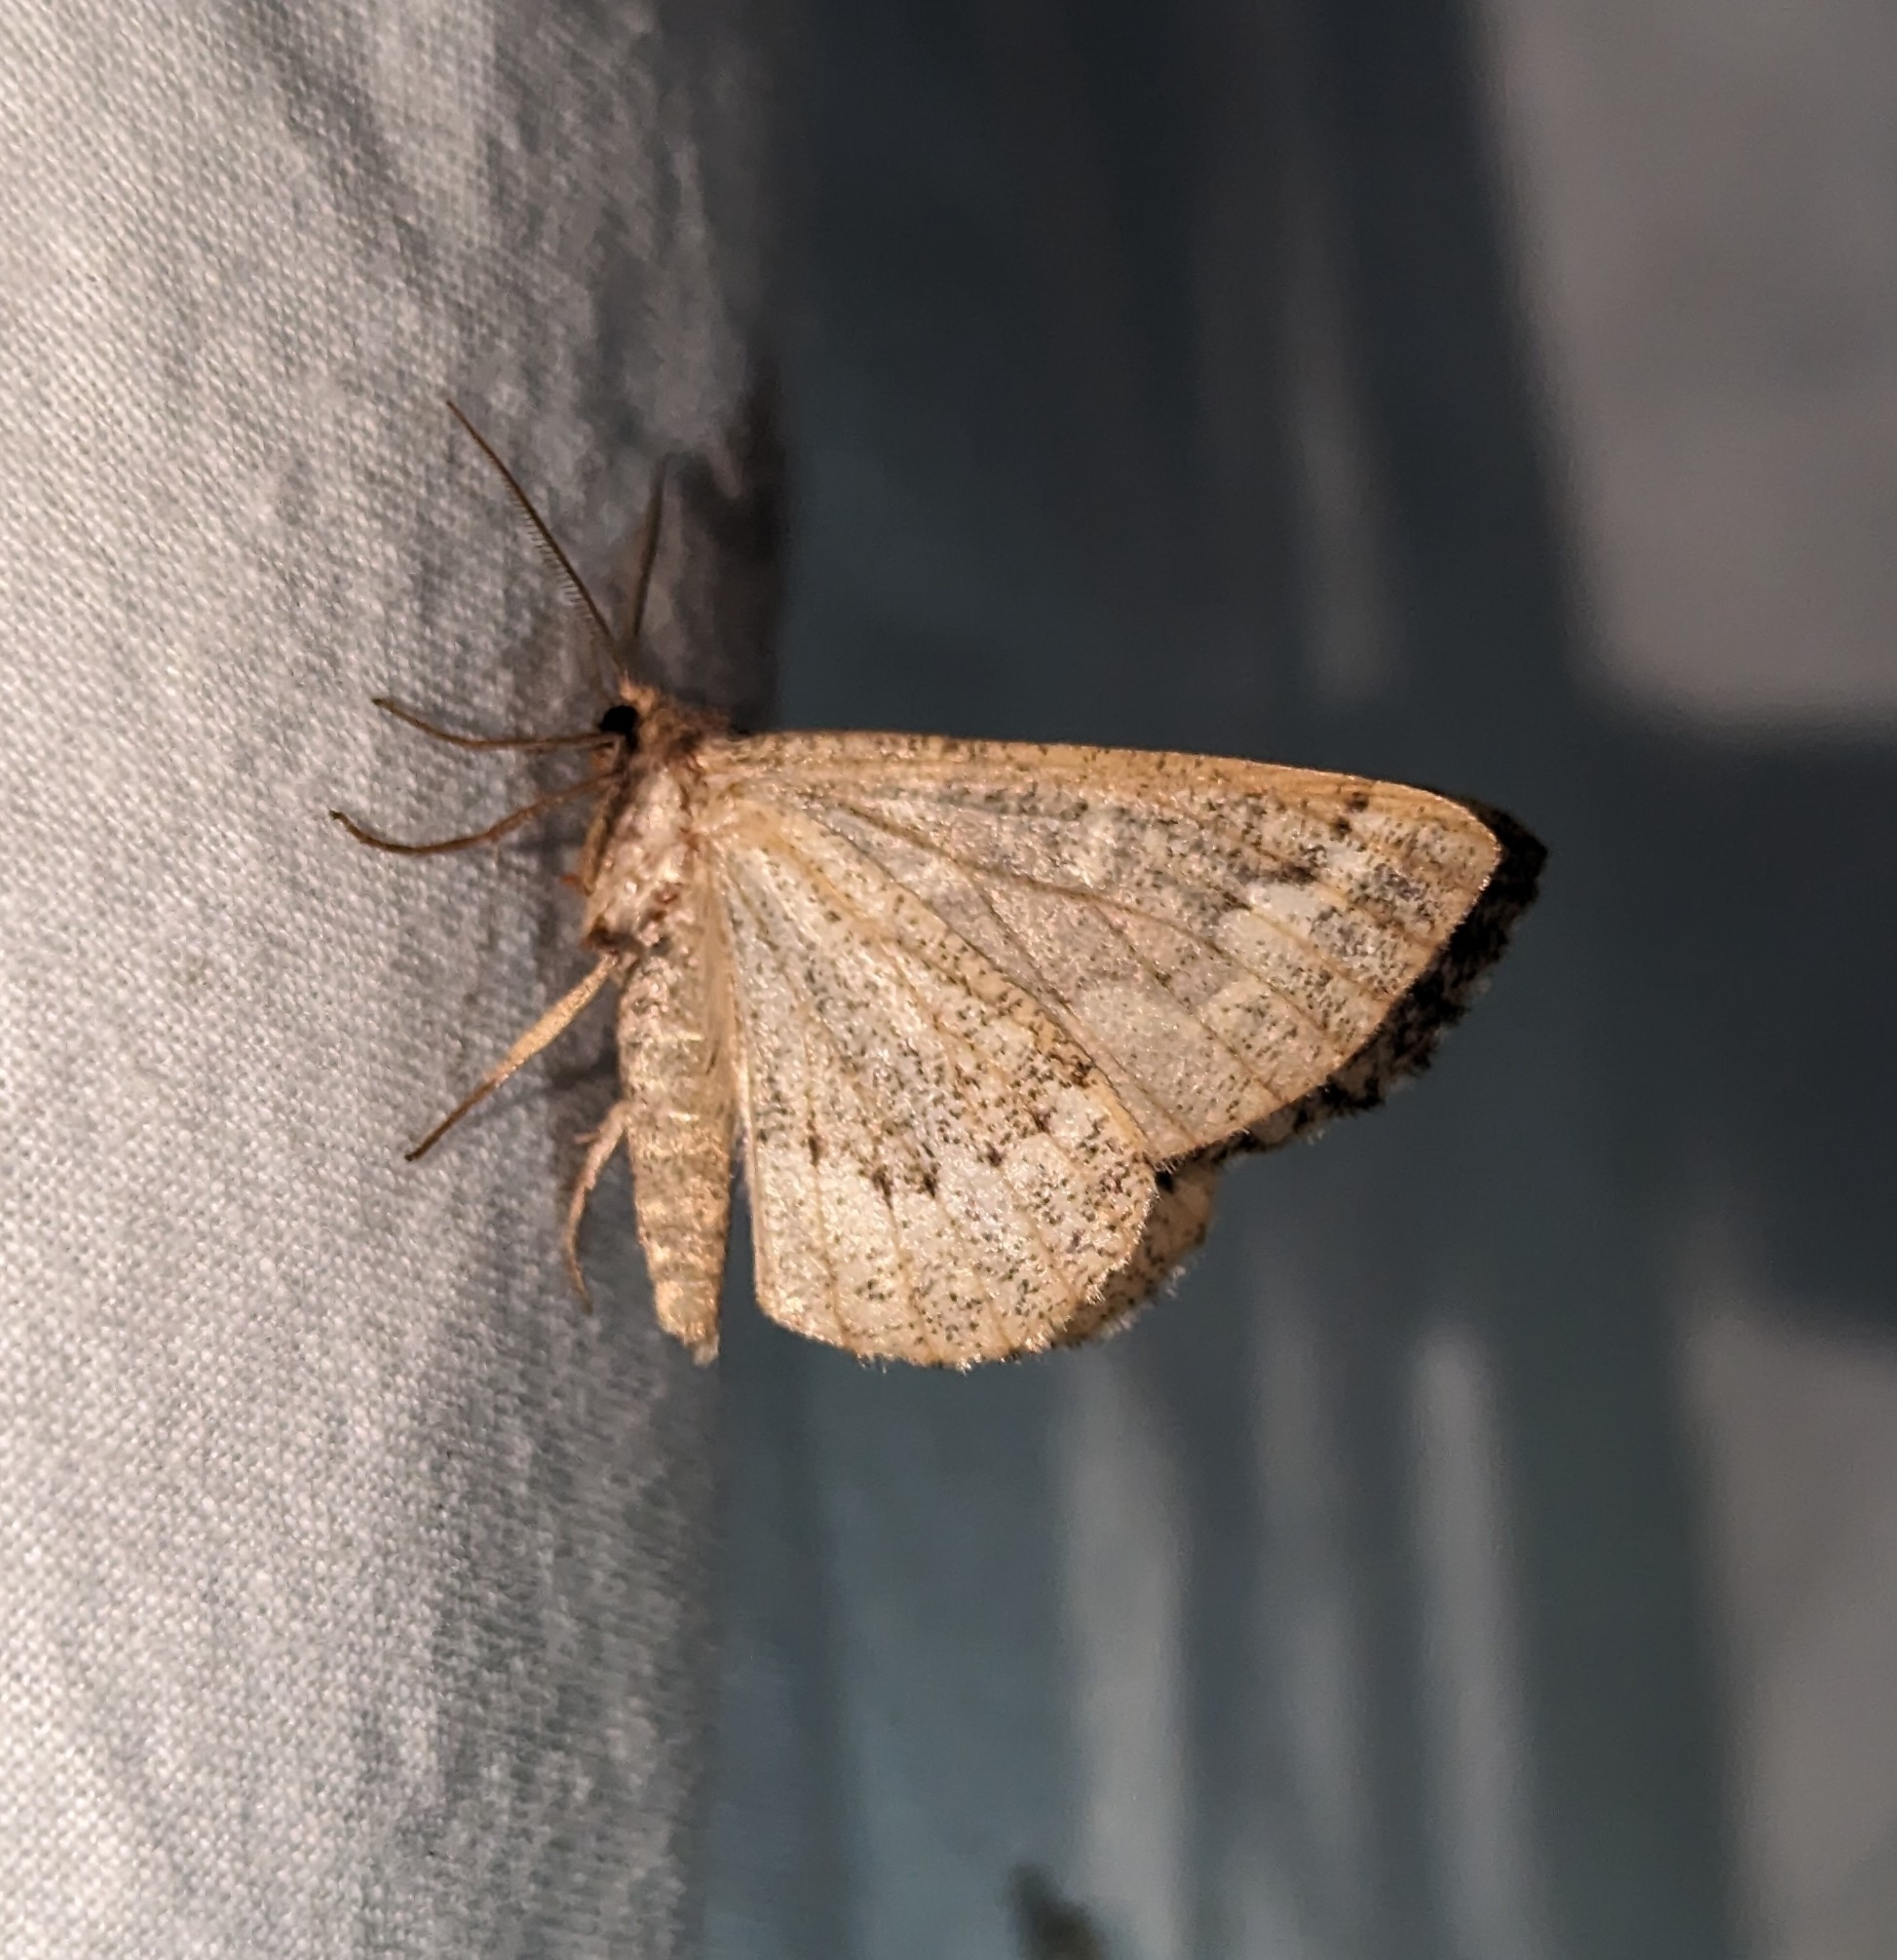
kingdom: Animalia
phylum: Arthropoda
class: Insecta
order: Lepidoptera
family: Geometridae
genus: Caripeta
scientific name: Caripeta divisata
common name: Gray spruce looper
